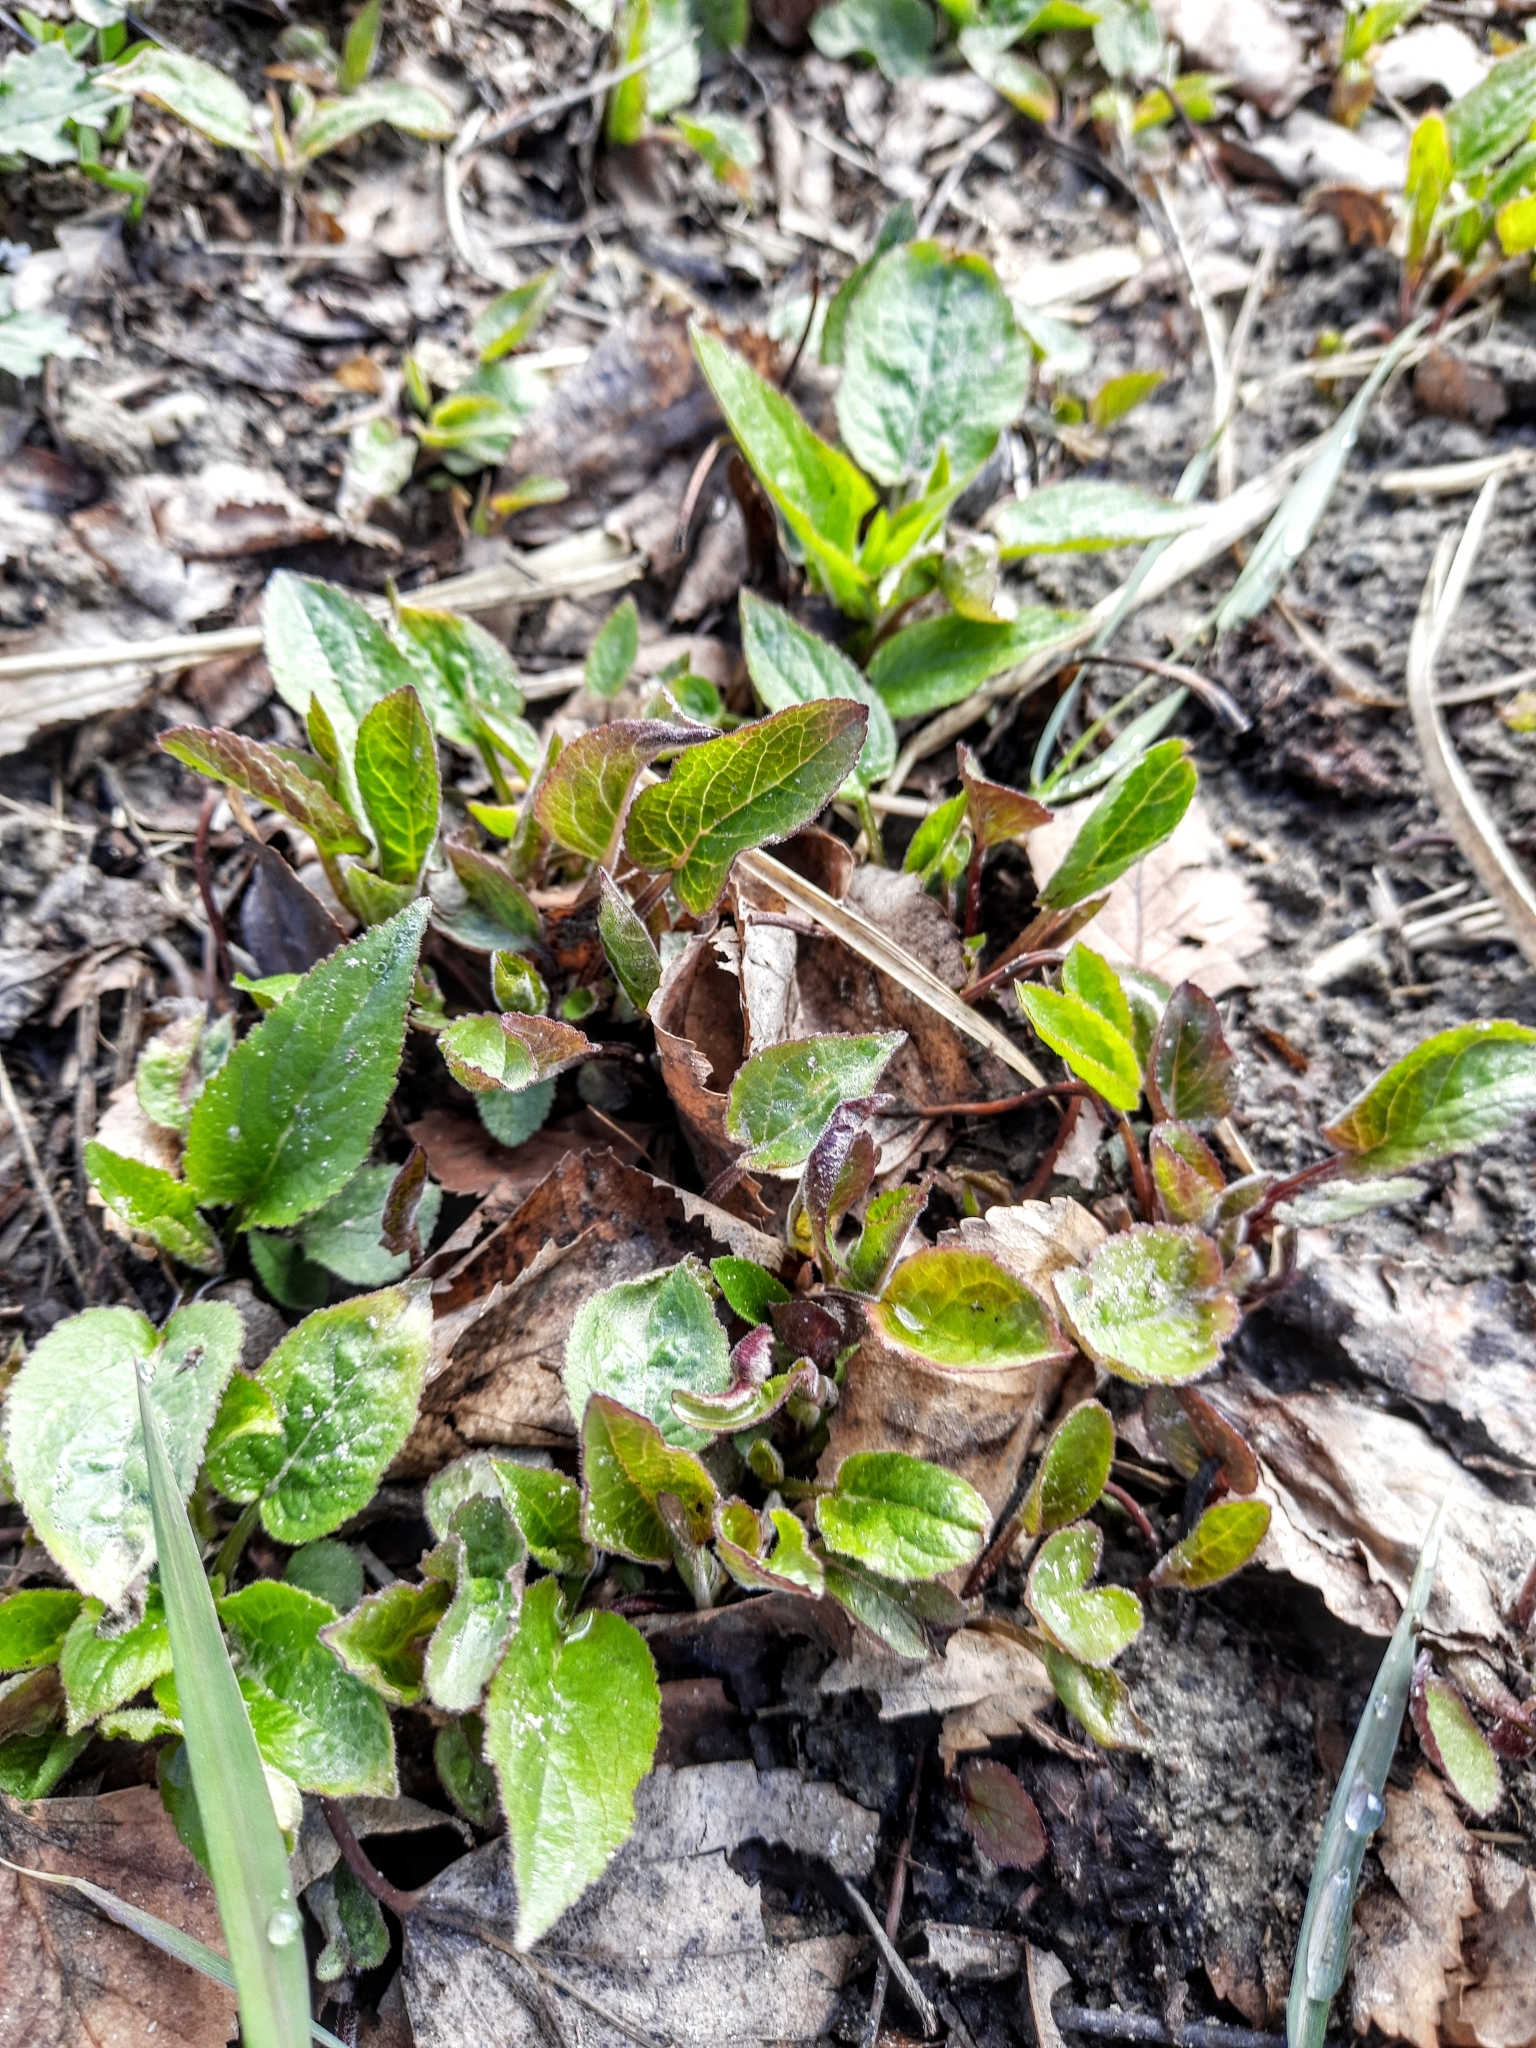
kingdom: Plantae
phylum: Tracheophyta
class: Magnoliopsida
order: Asterales
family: Campanulaceae
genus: Campanula
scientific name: Campanula rapunculoides
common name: Creeping bellflower
